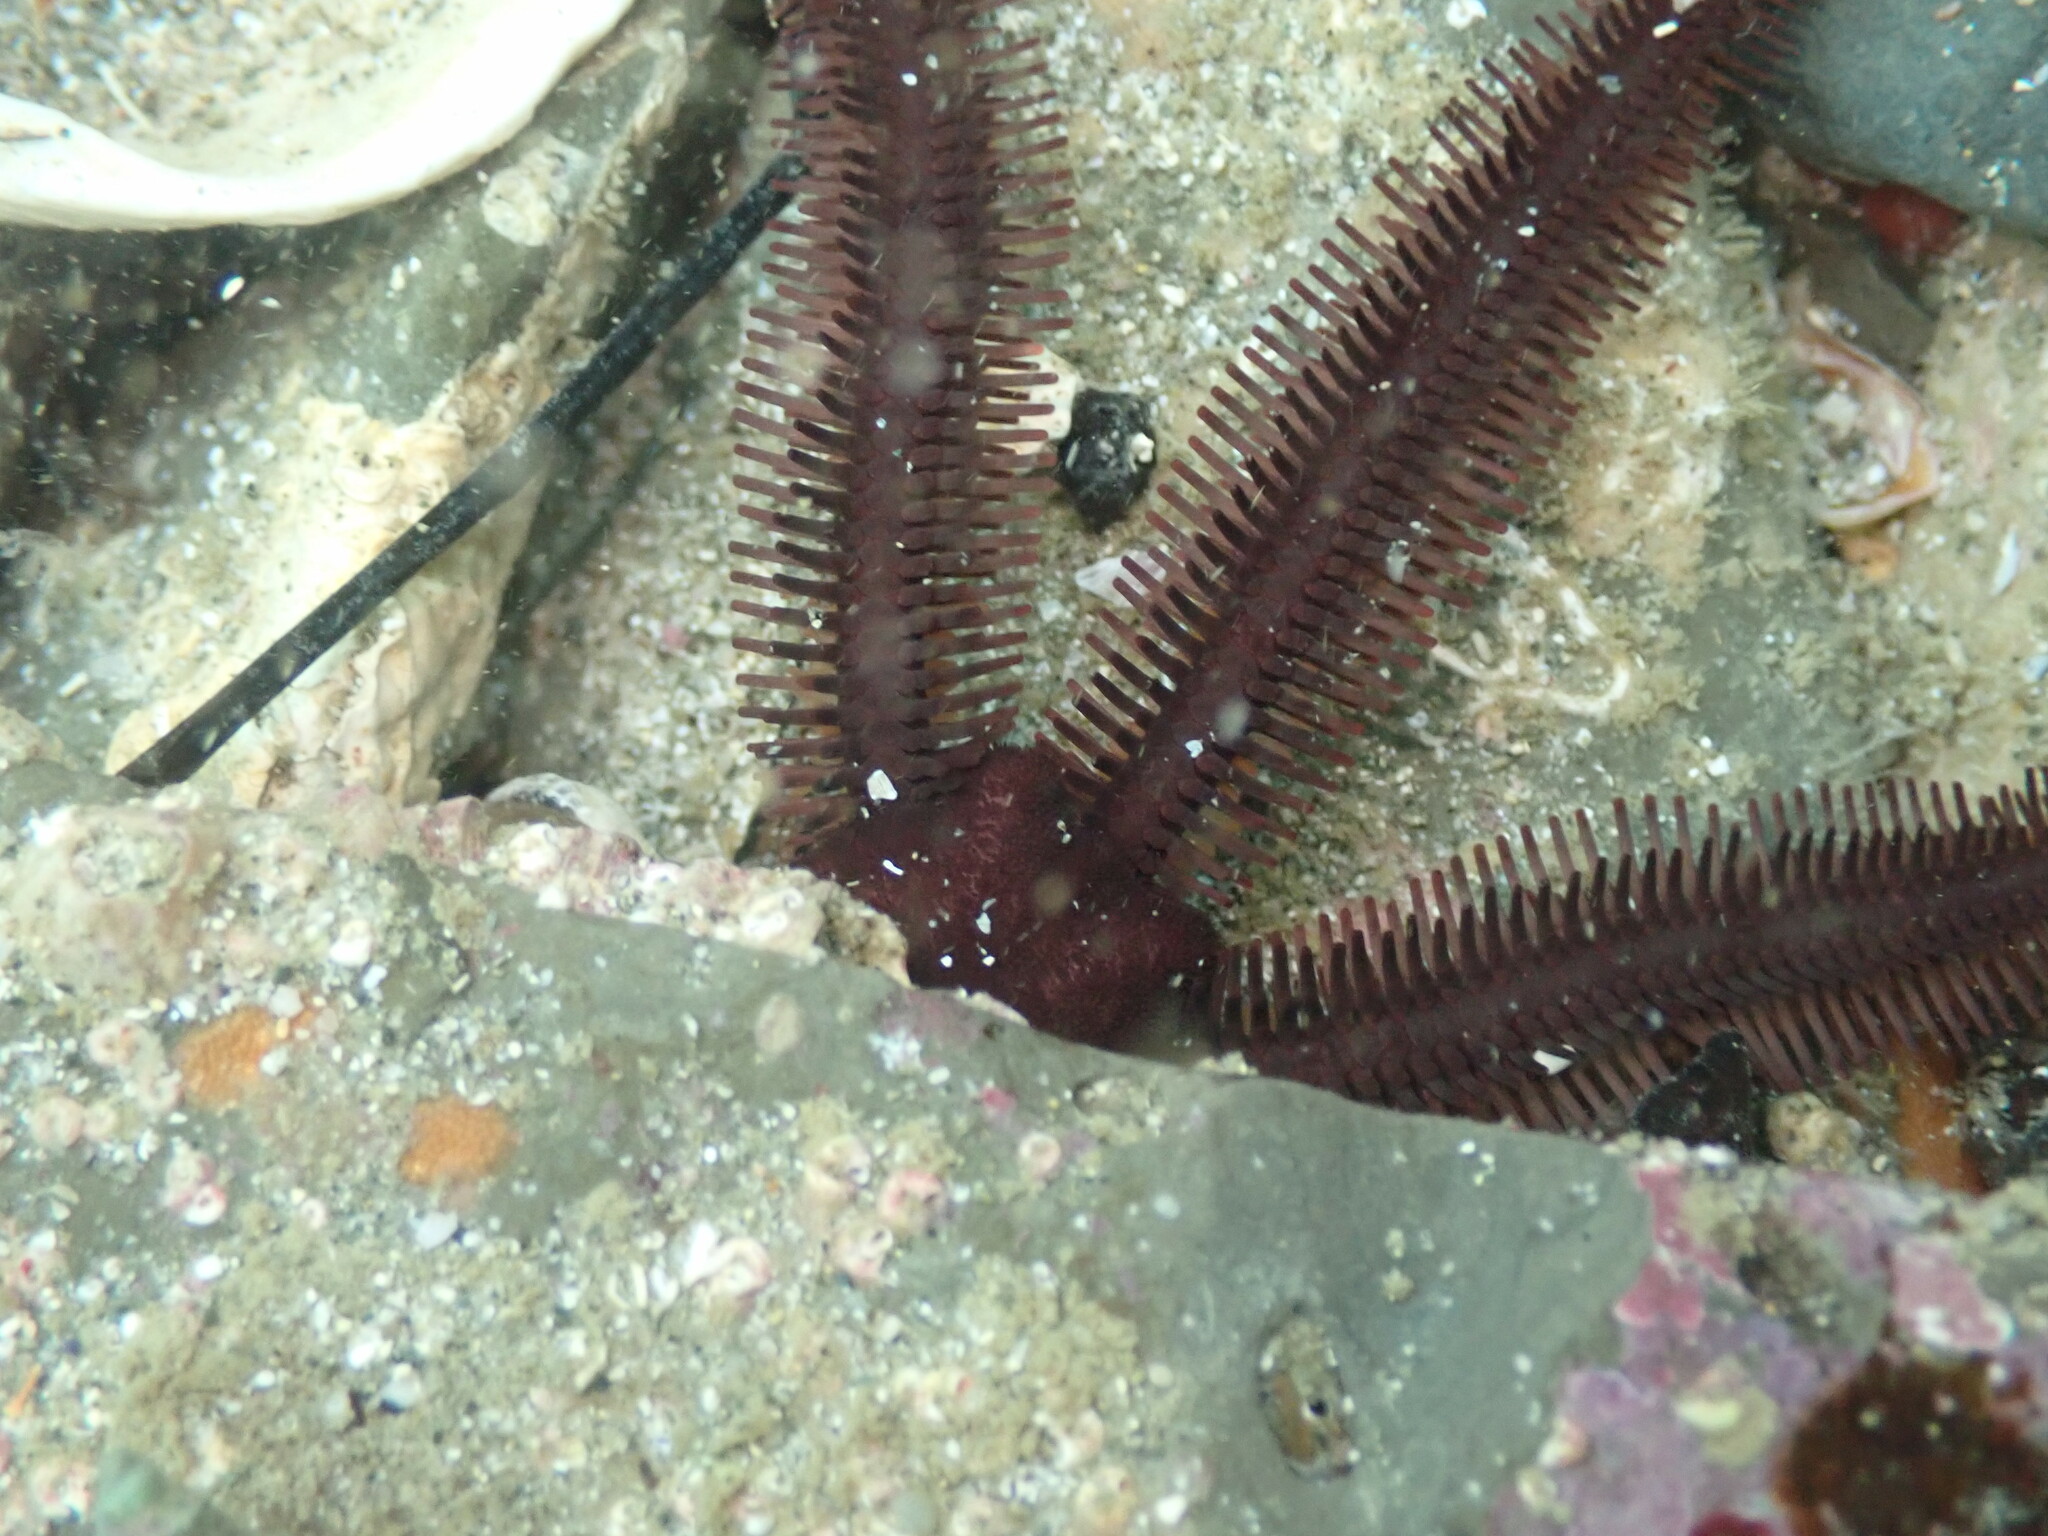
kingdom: Animalia
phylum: Echinodermata
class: Ophiuroidea
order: Ophiacanthida
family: Ophiopteridae
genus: Ophiopteris
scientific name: Ophiopteris antipodum
